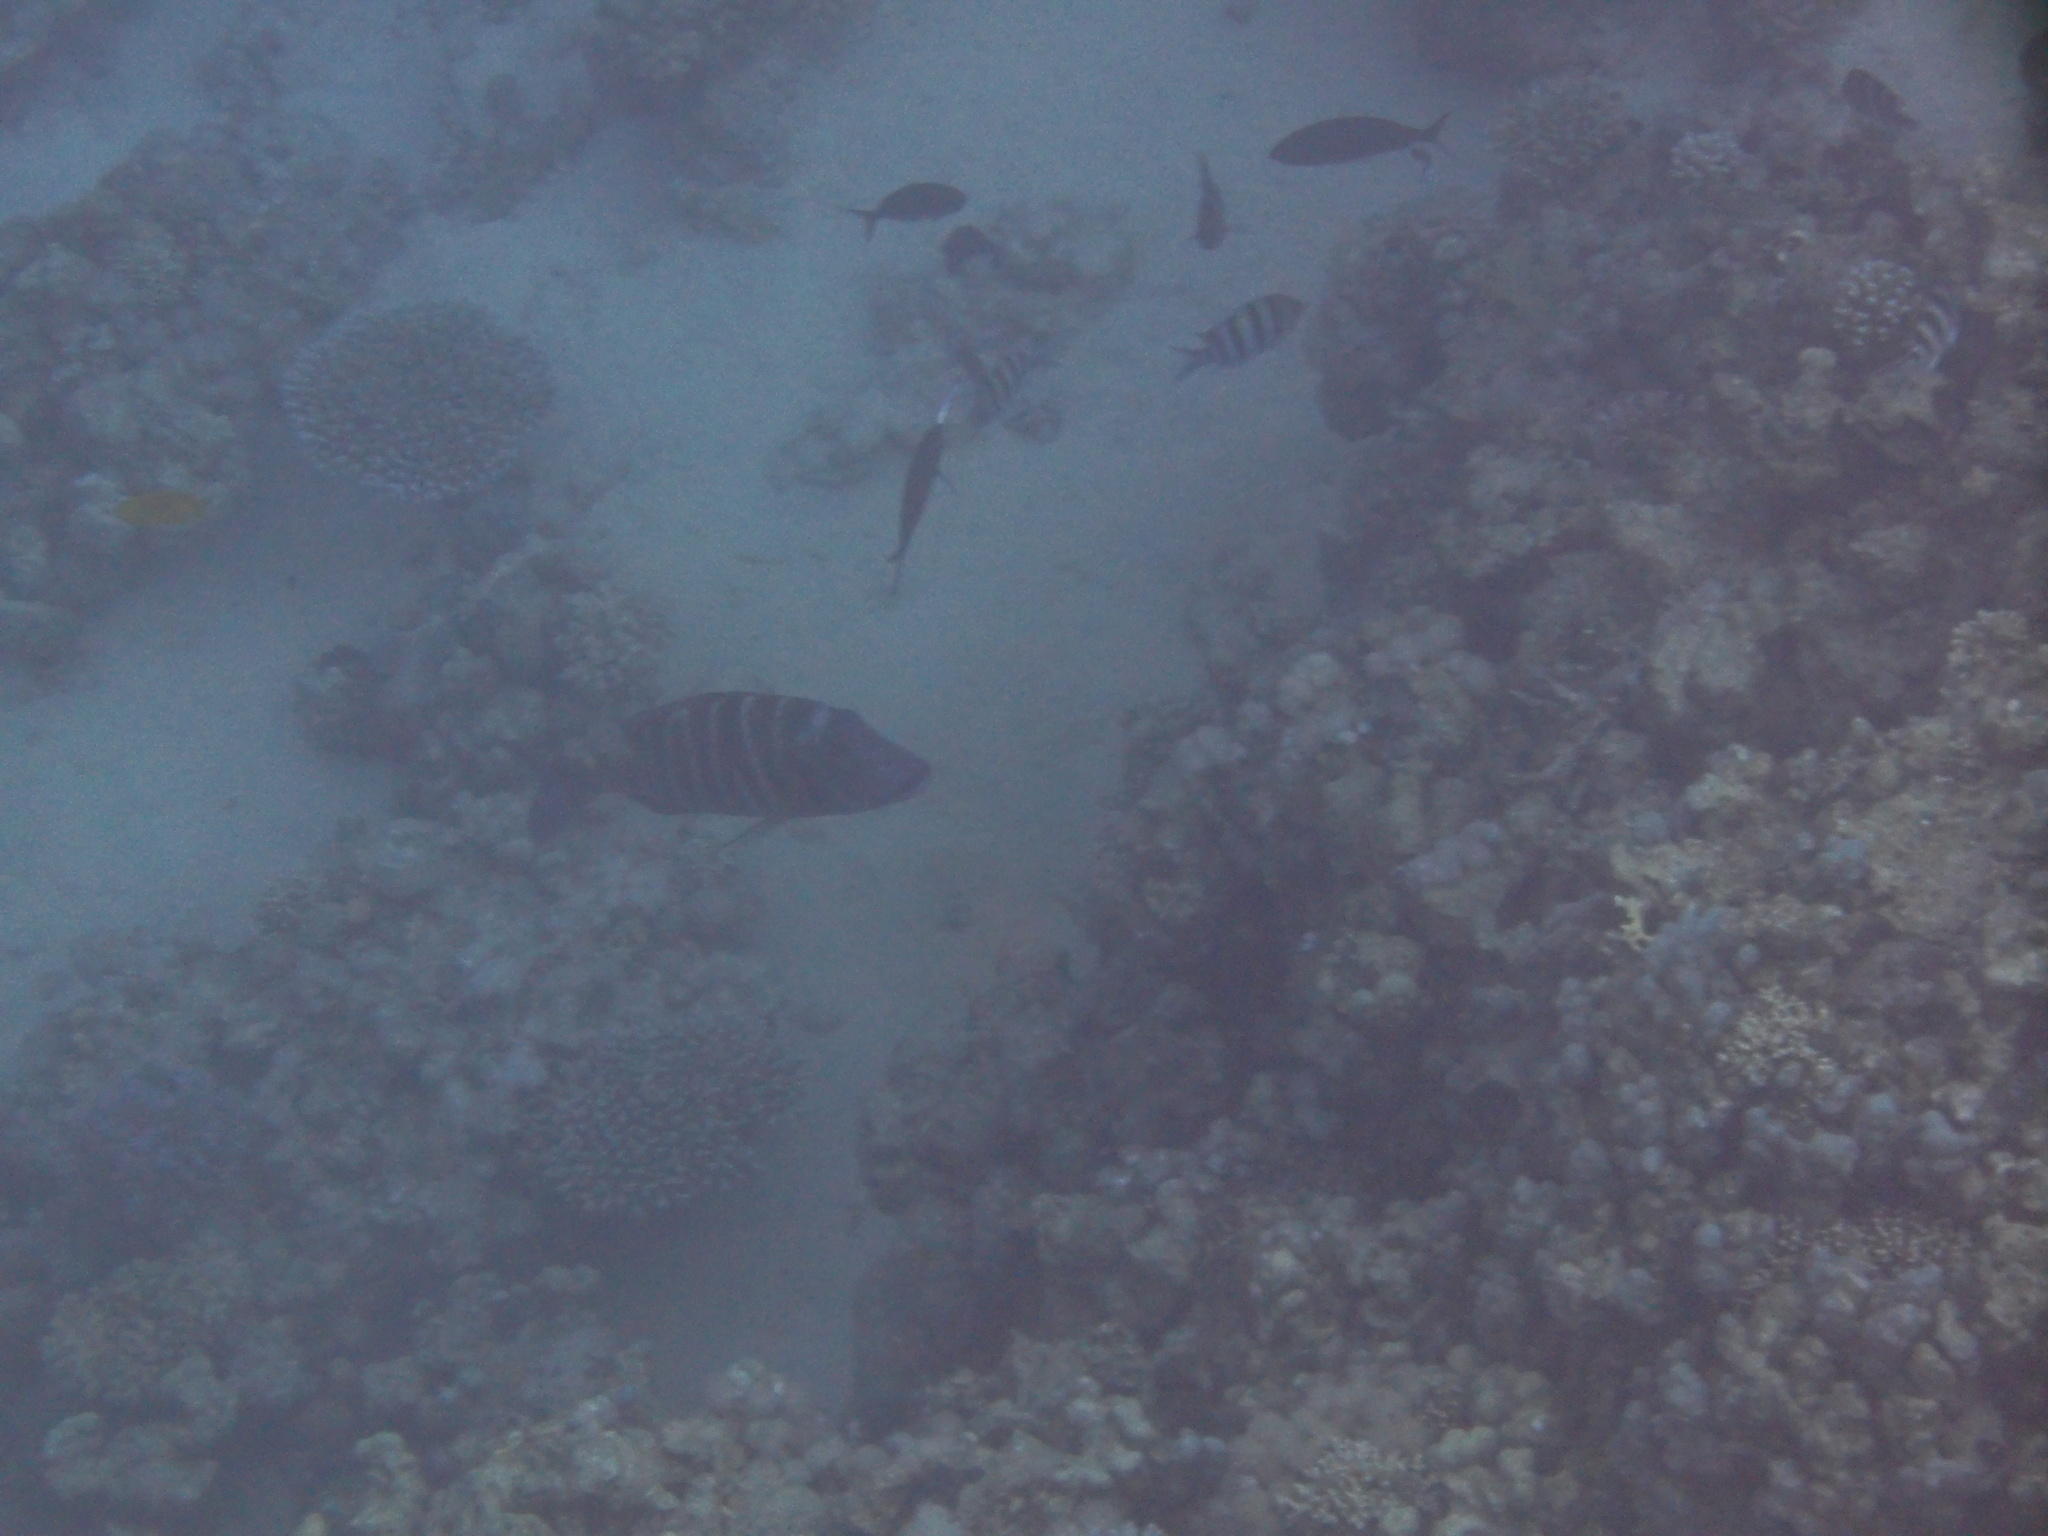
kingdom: Animalia
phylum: Chordata
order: Perciformes
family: Lethrinidae
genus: Lethrinus
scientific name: Lethrinus mahsena
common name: Sky emperor
